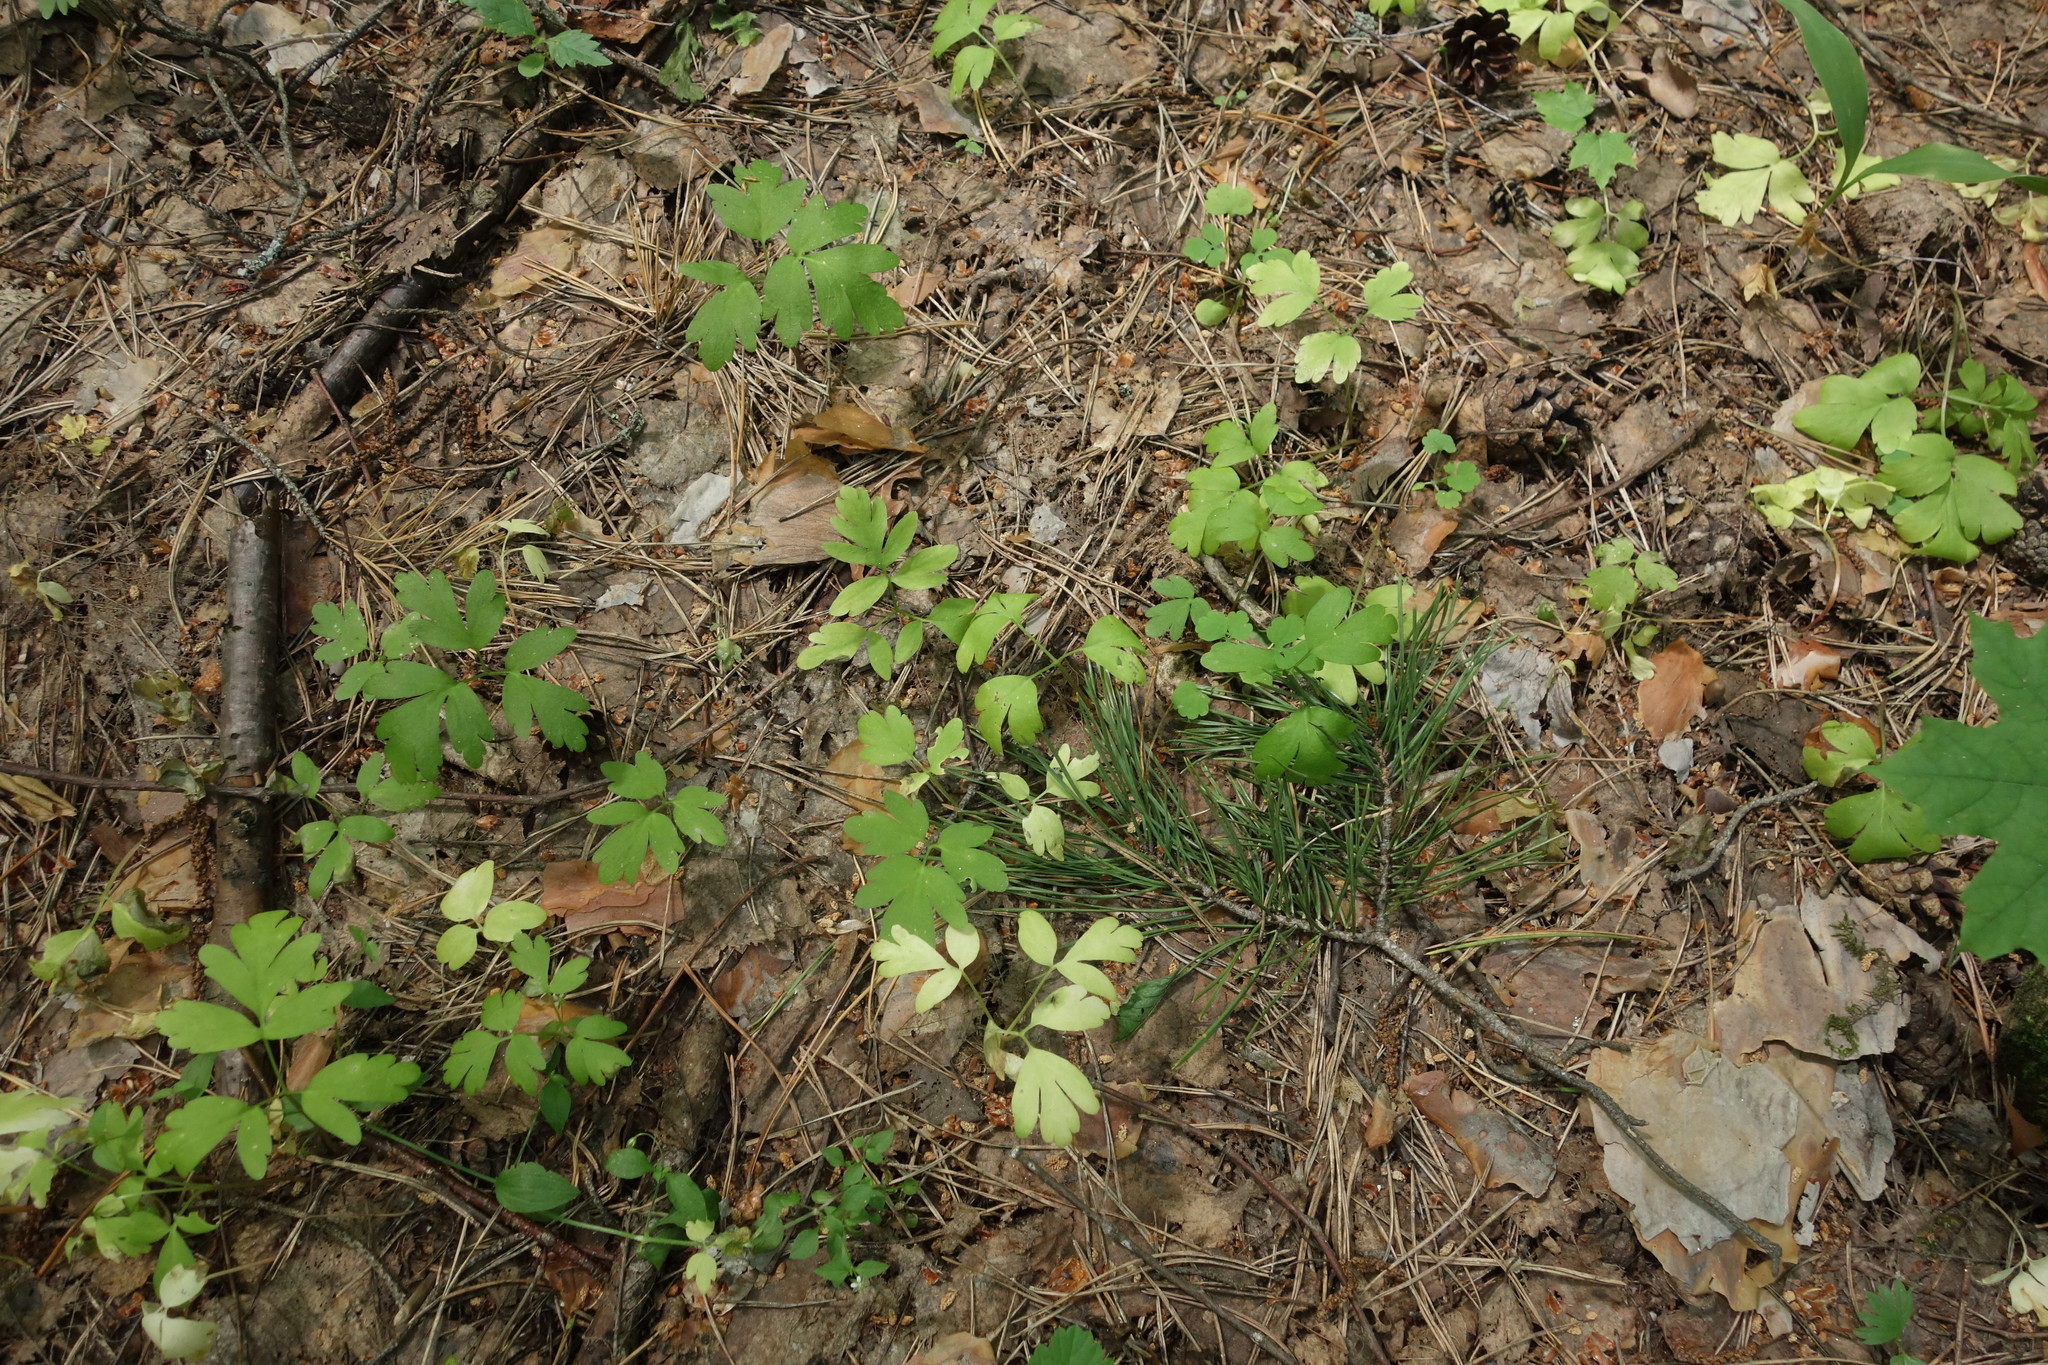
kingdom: Plantae
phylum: Tracheophyta
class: Magnoliopsida
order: Dipsacales
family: Viburnaceae
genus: Adoxa
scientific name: Adoxa moschatellina
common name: Moschatel
